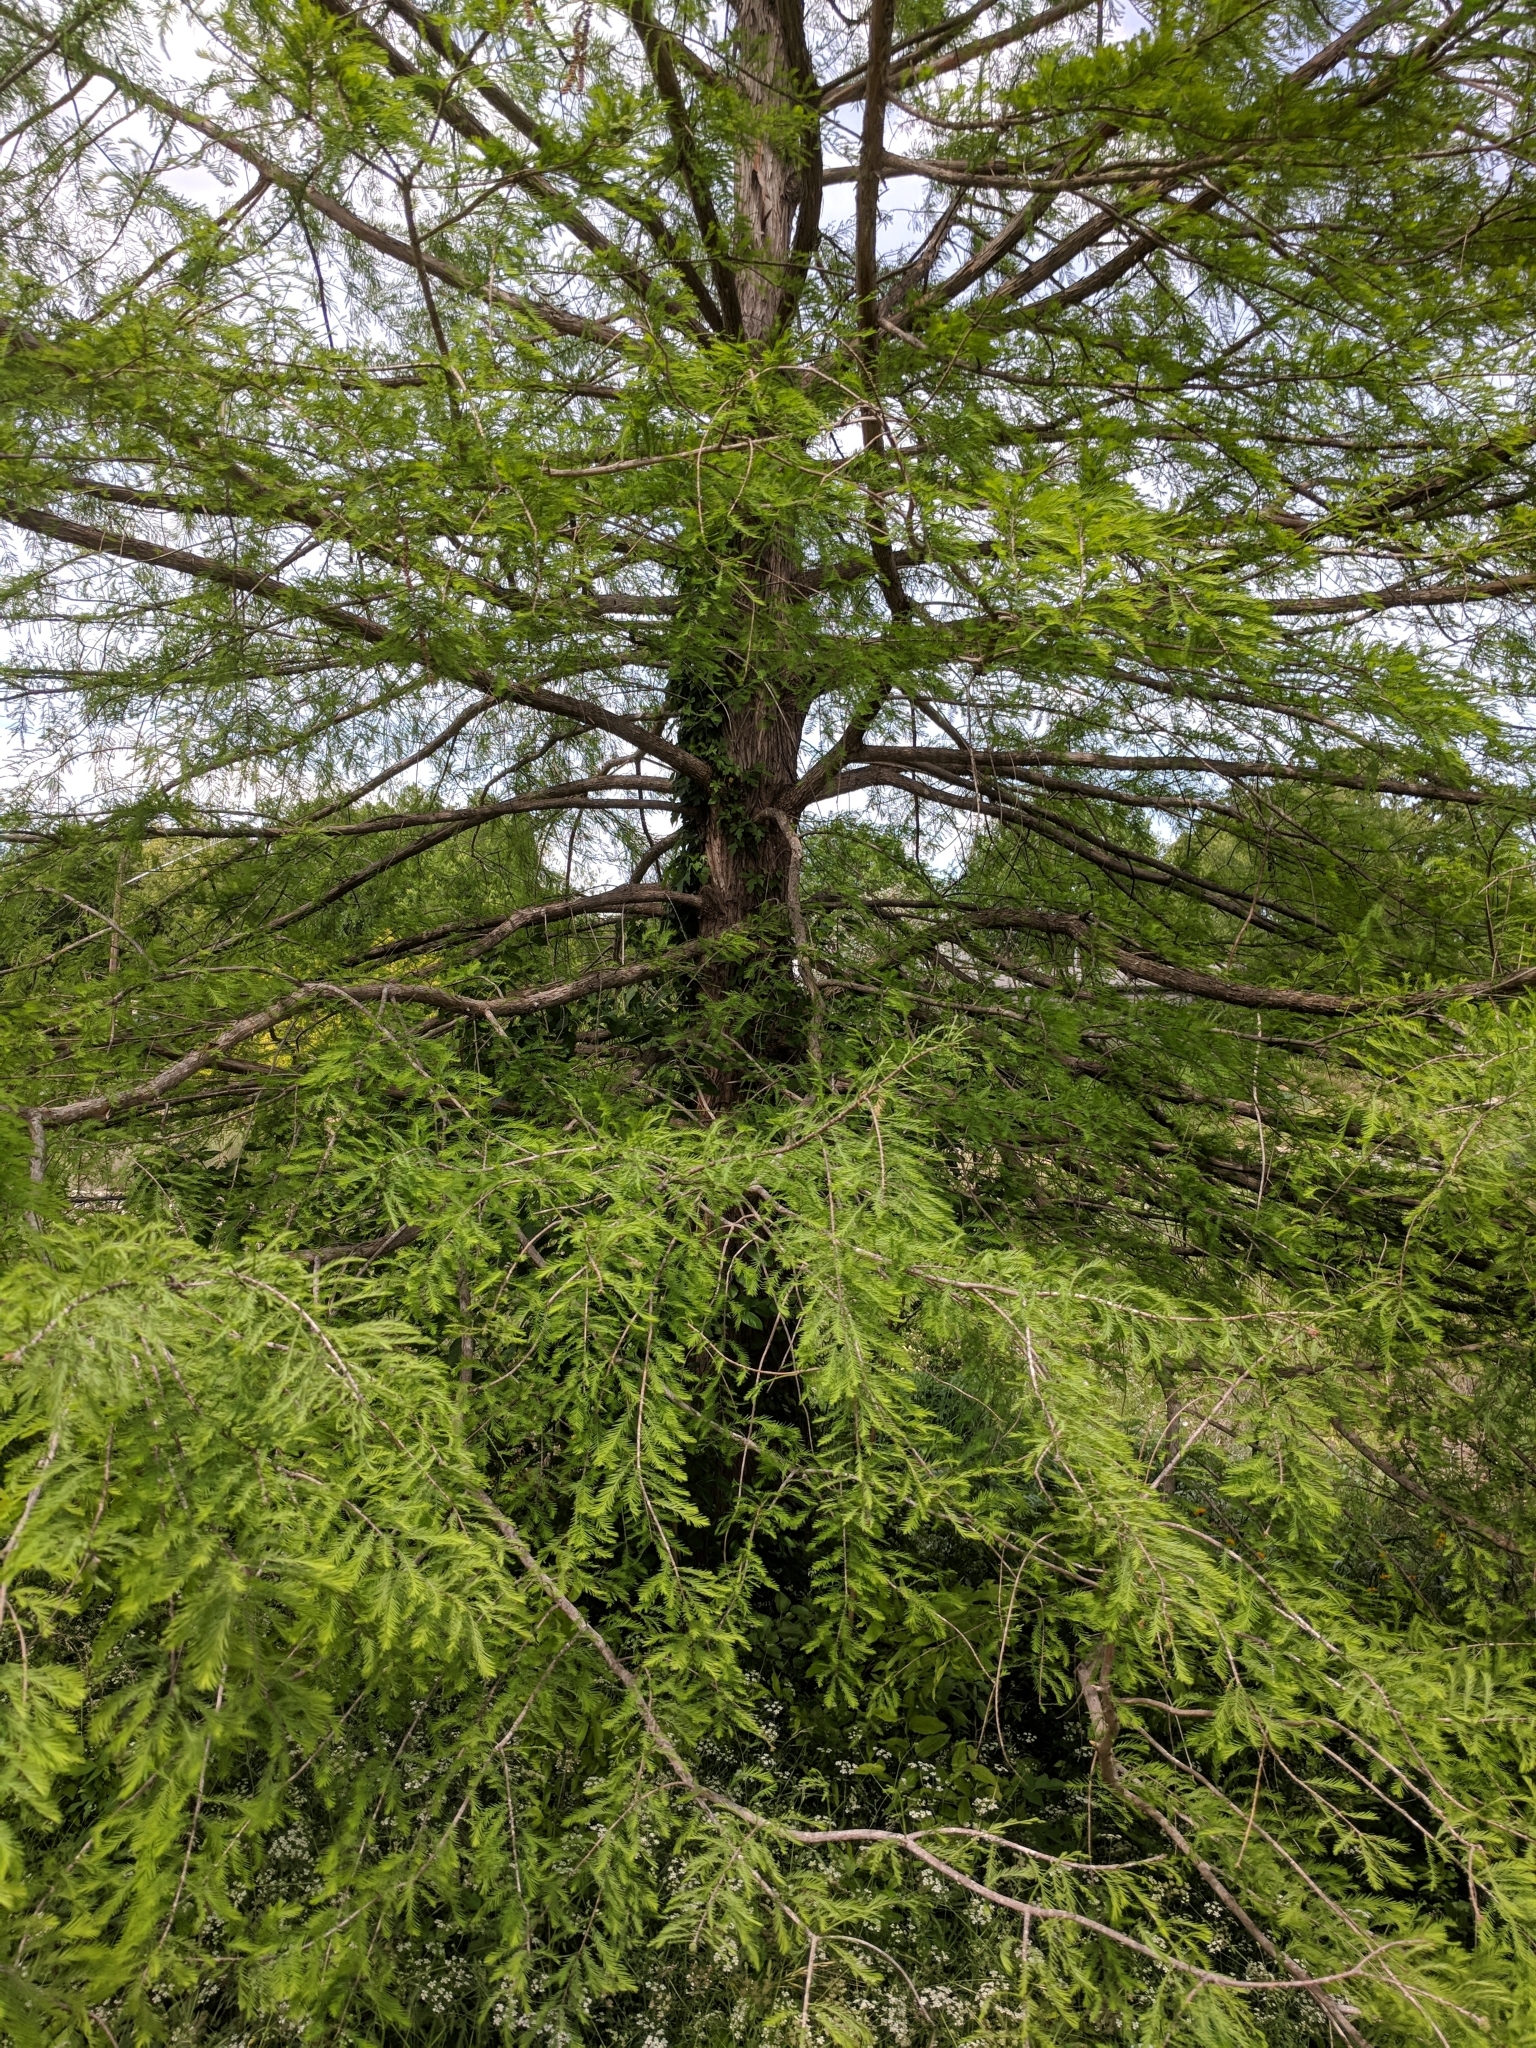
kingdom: Plantae
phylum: Tracheophyta
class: Pinopsida
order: Pinales
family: Cupressaceae
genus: Taxodium
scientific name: Taxodium distichum
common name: Bald cypress
